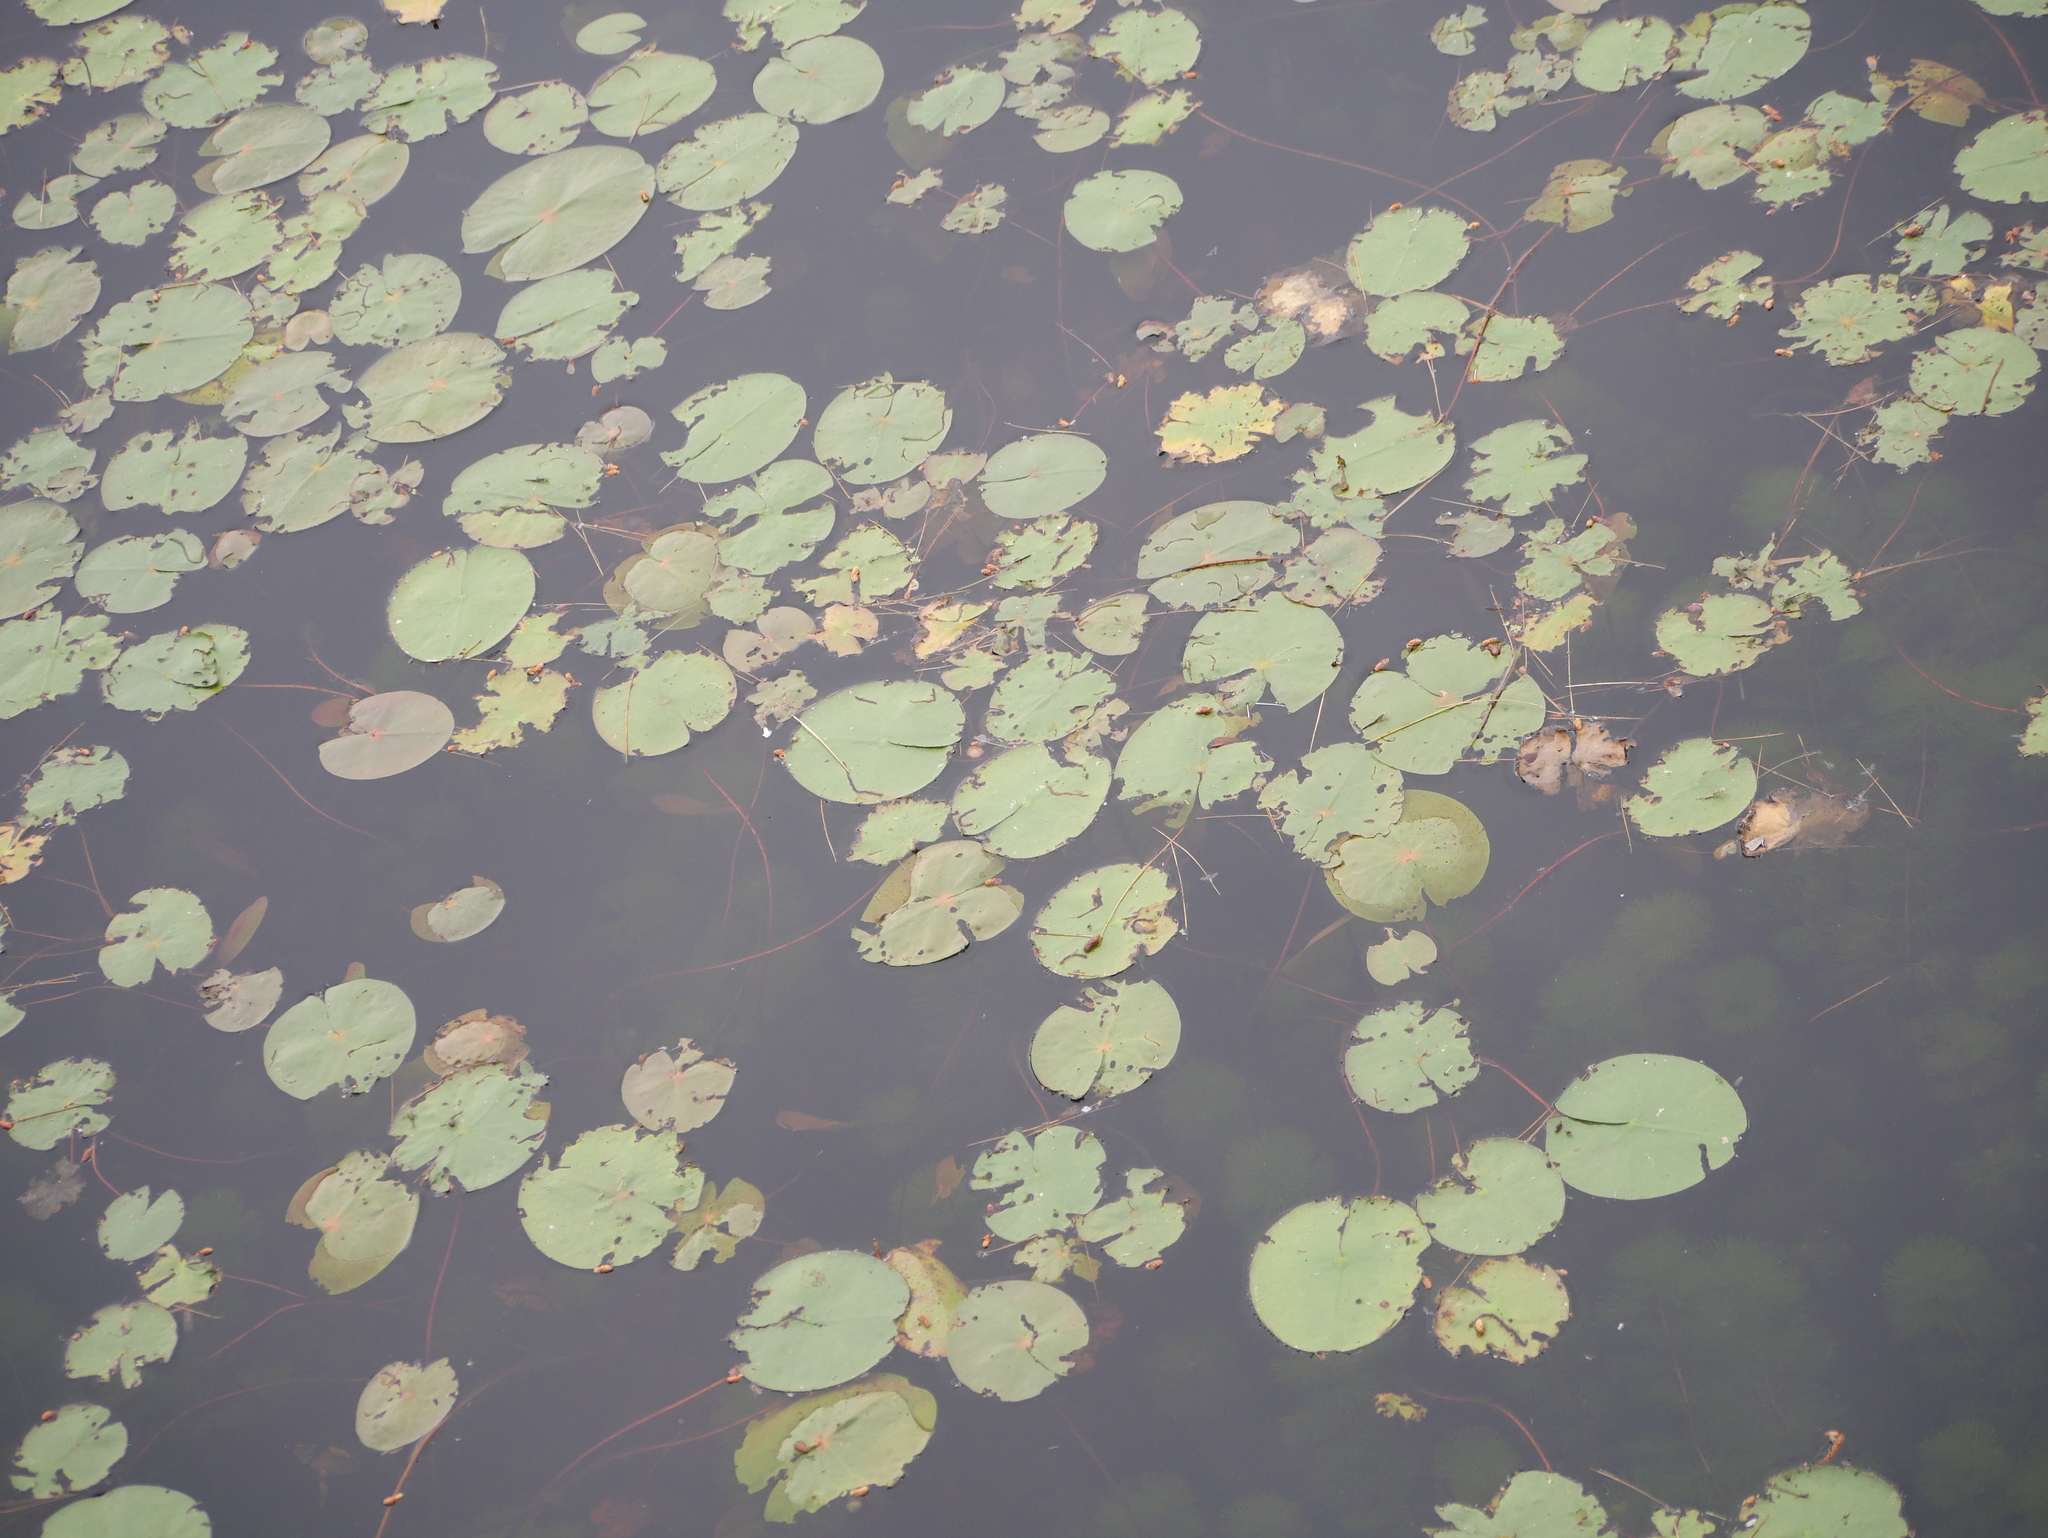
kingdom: Plantae
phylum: Tracheophyta
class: Magnoliopsida
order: Nymphaeales
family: Nymphaeaceae
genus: Nymphaea
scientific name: Nymphaea odorata
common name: Fragrant water-lily
